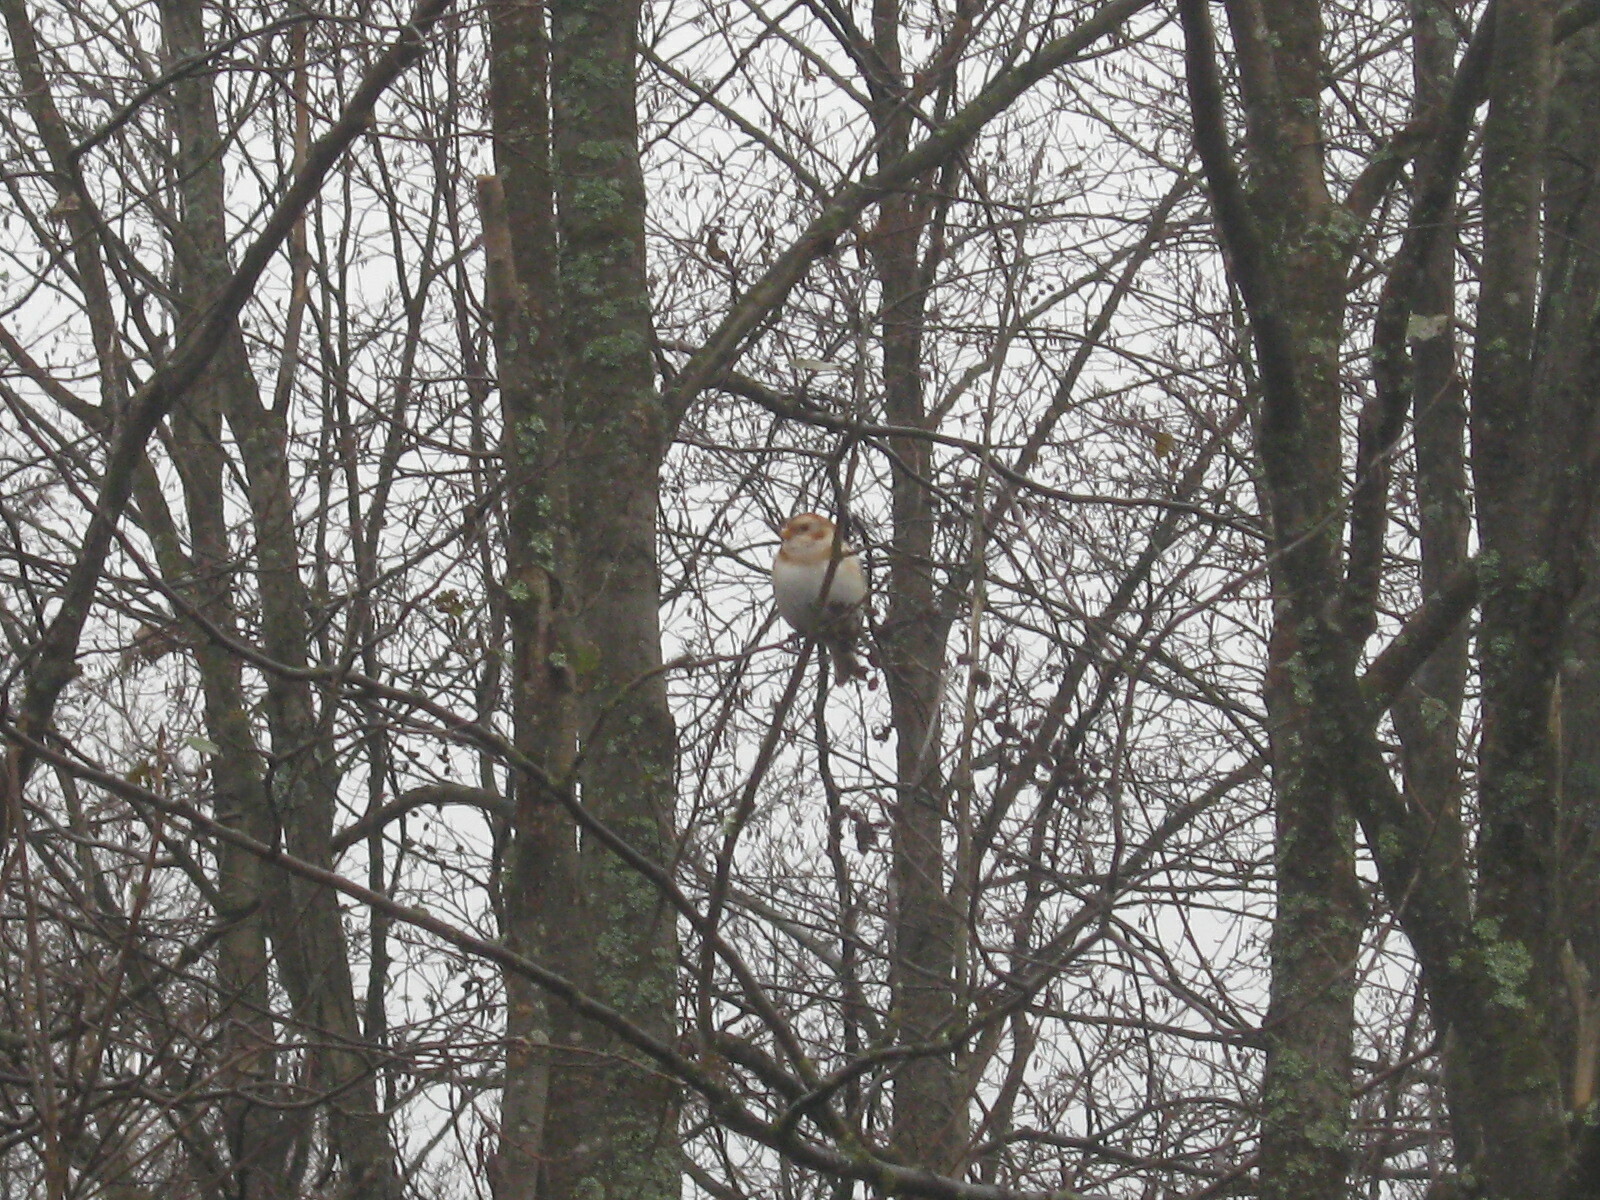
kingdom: Animalia
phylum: Chordata
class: Aves
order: Passeriformes
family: Calcariidae
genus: Plectrophenax
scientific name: Plectrophenax nivalis
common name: Snow bunting
